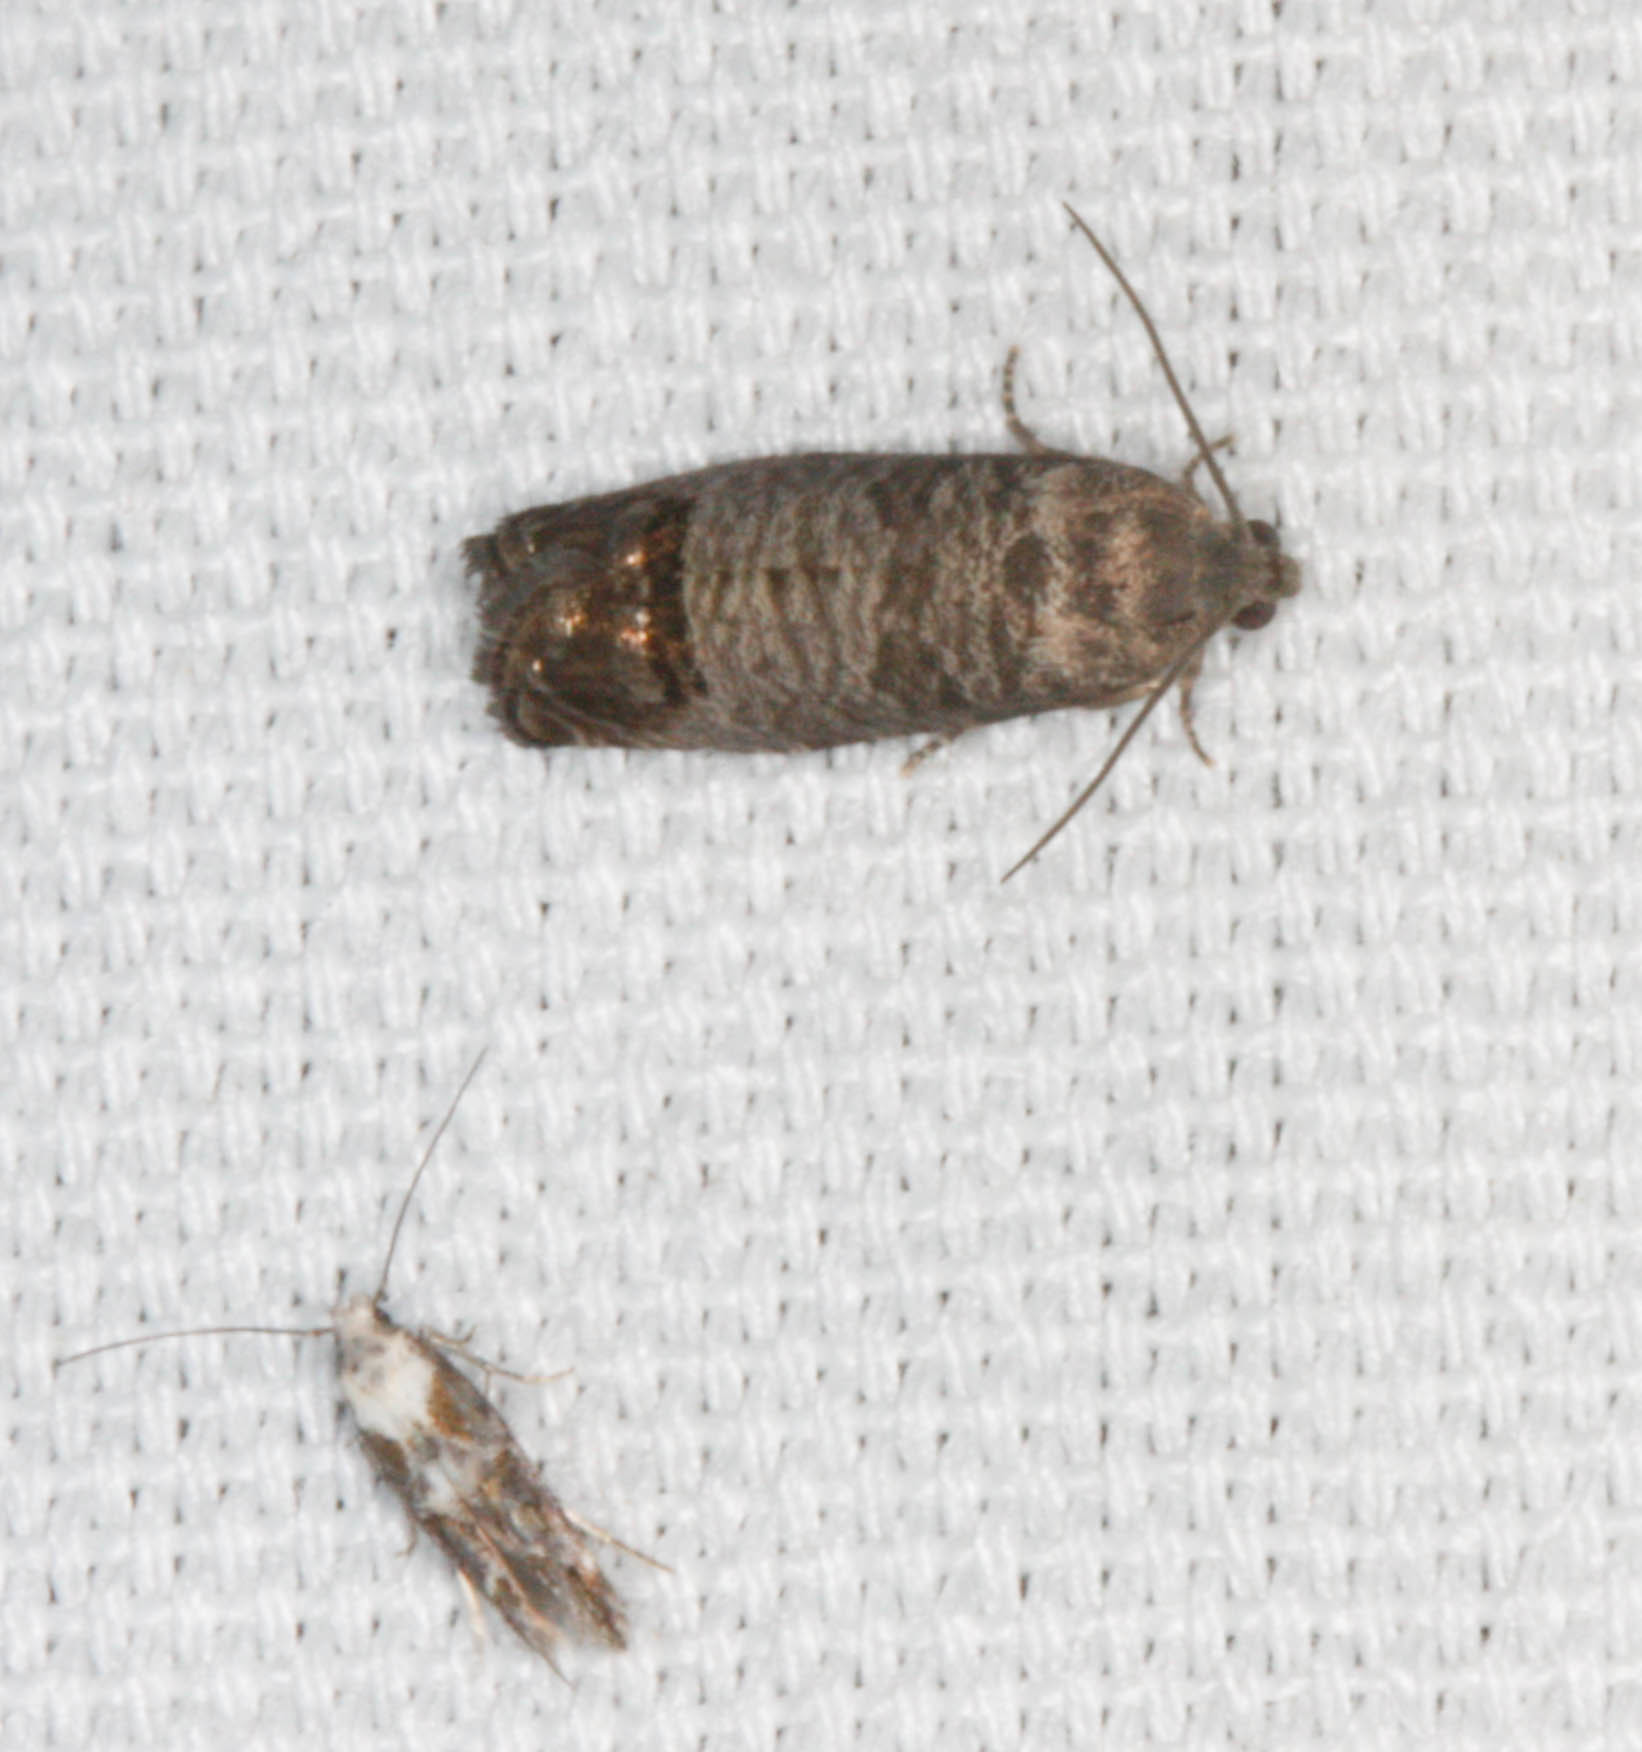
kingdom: Animalia
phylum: Arthropoda
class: Insecta
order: Lepidoptera
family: Tortricidae
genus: Cydia
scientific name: Cydia pomonella
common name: Codling moth
